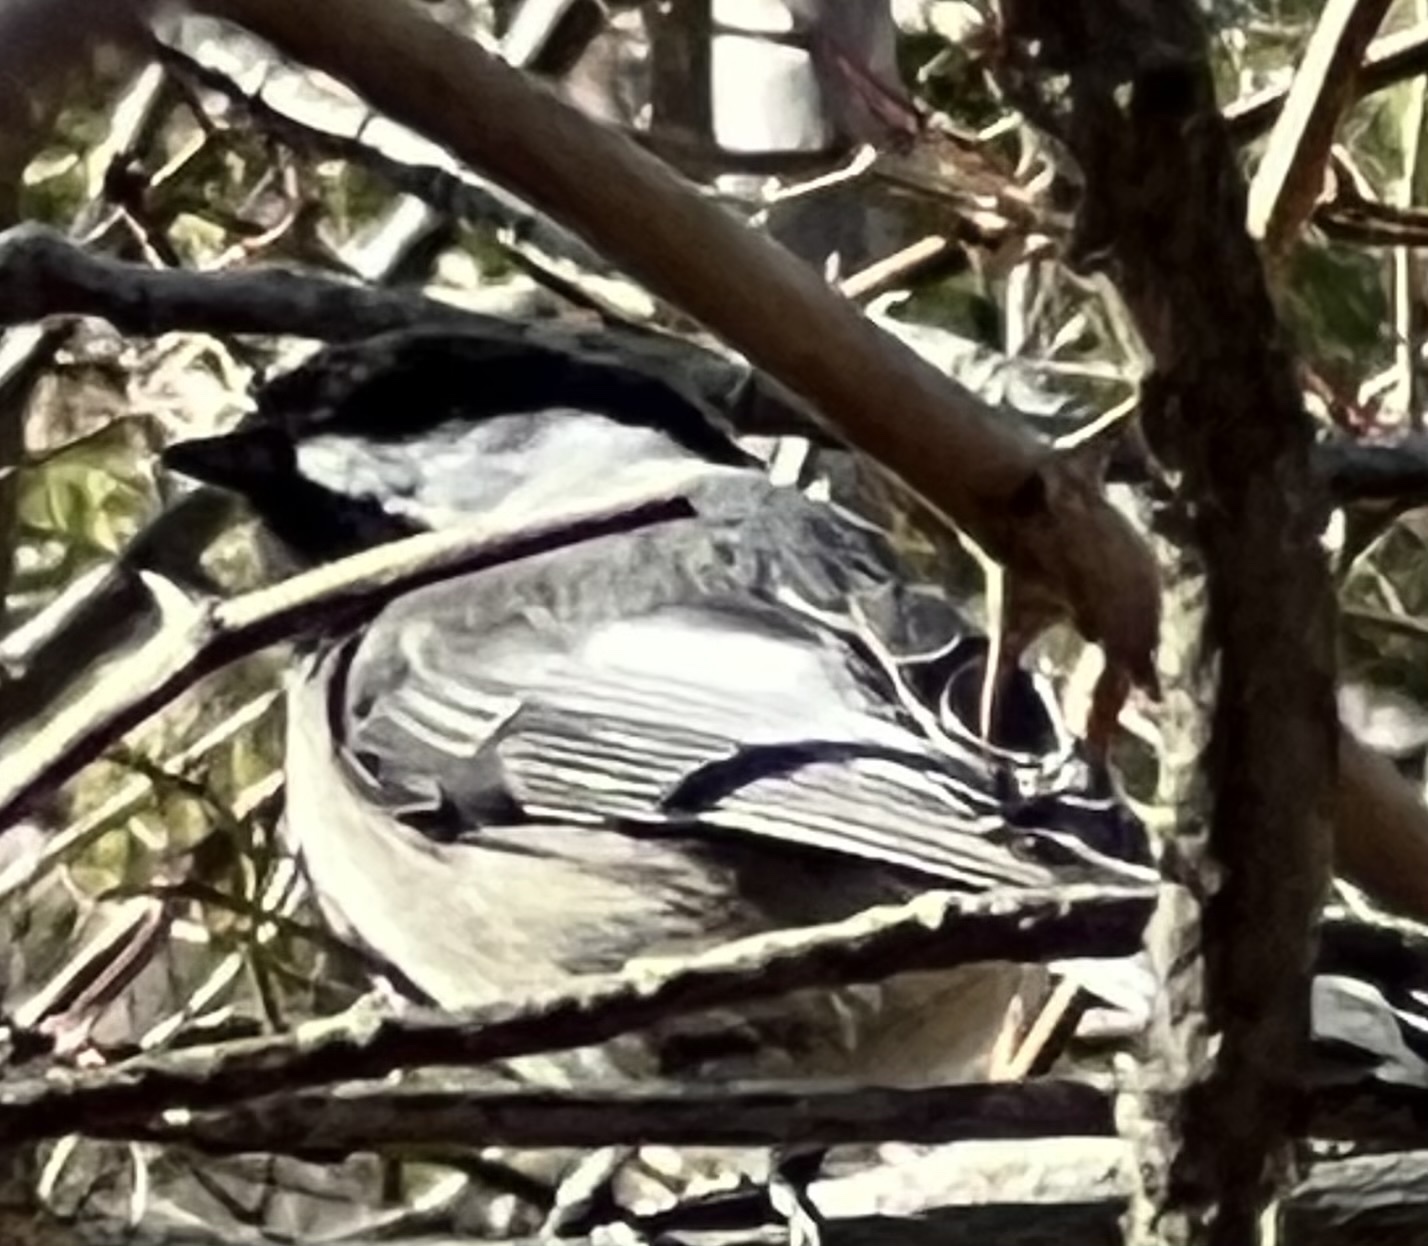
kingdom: Animalia
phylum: Chordata
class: Aves
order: Passeriformes
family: Paridae
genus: Poecile
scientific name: Poecile atricapillus
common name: Black-capped chickadee
